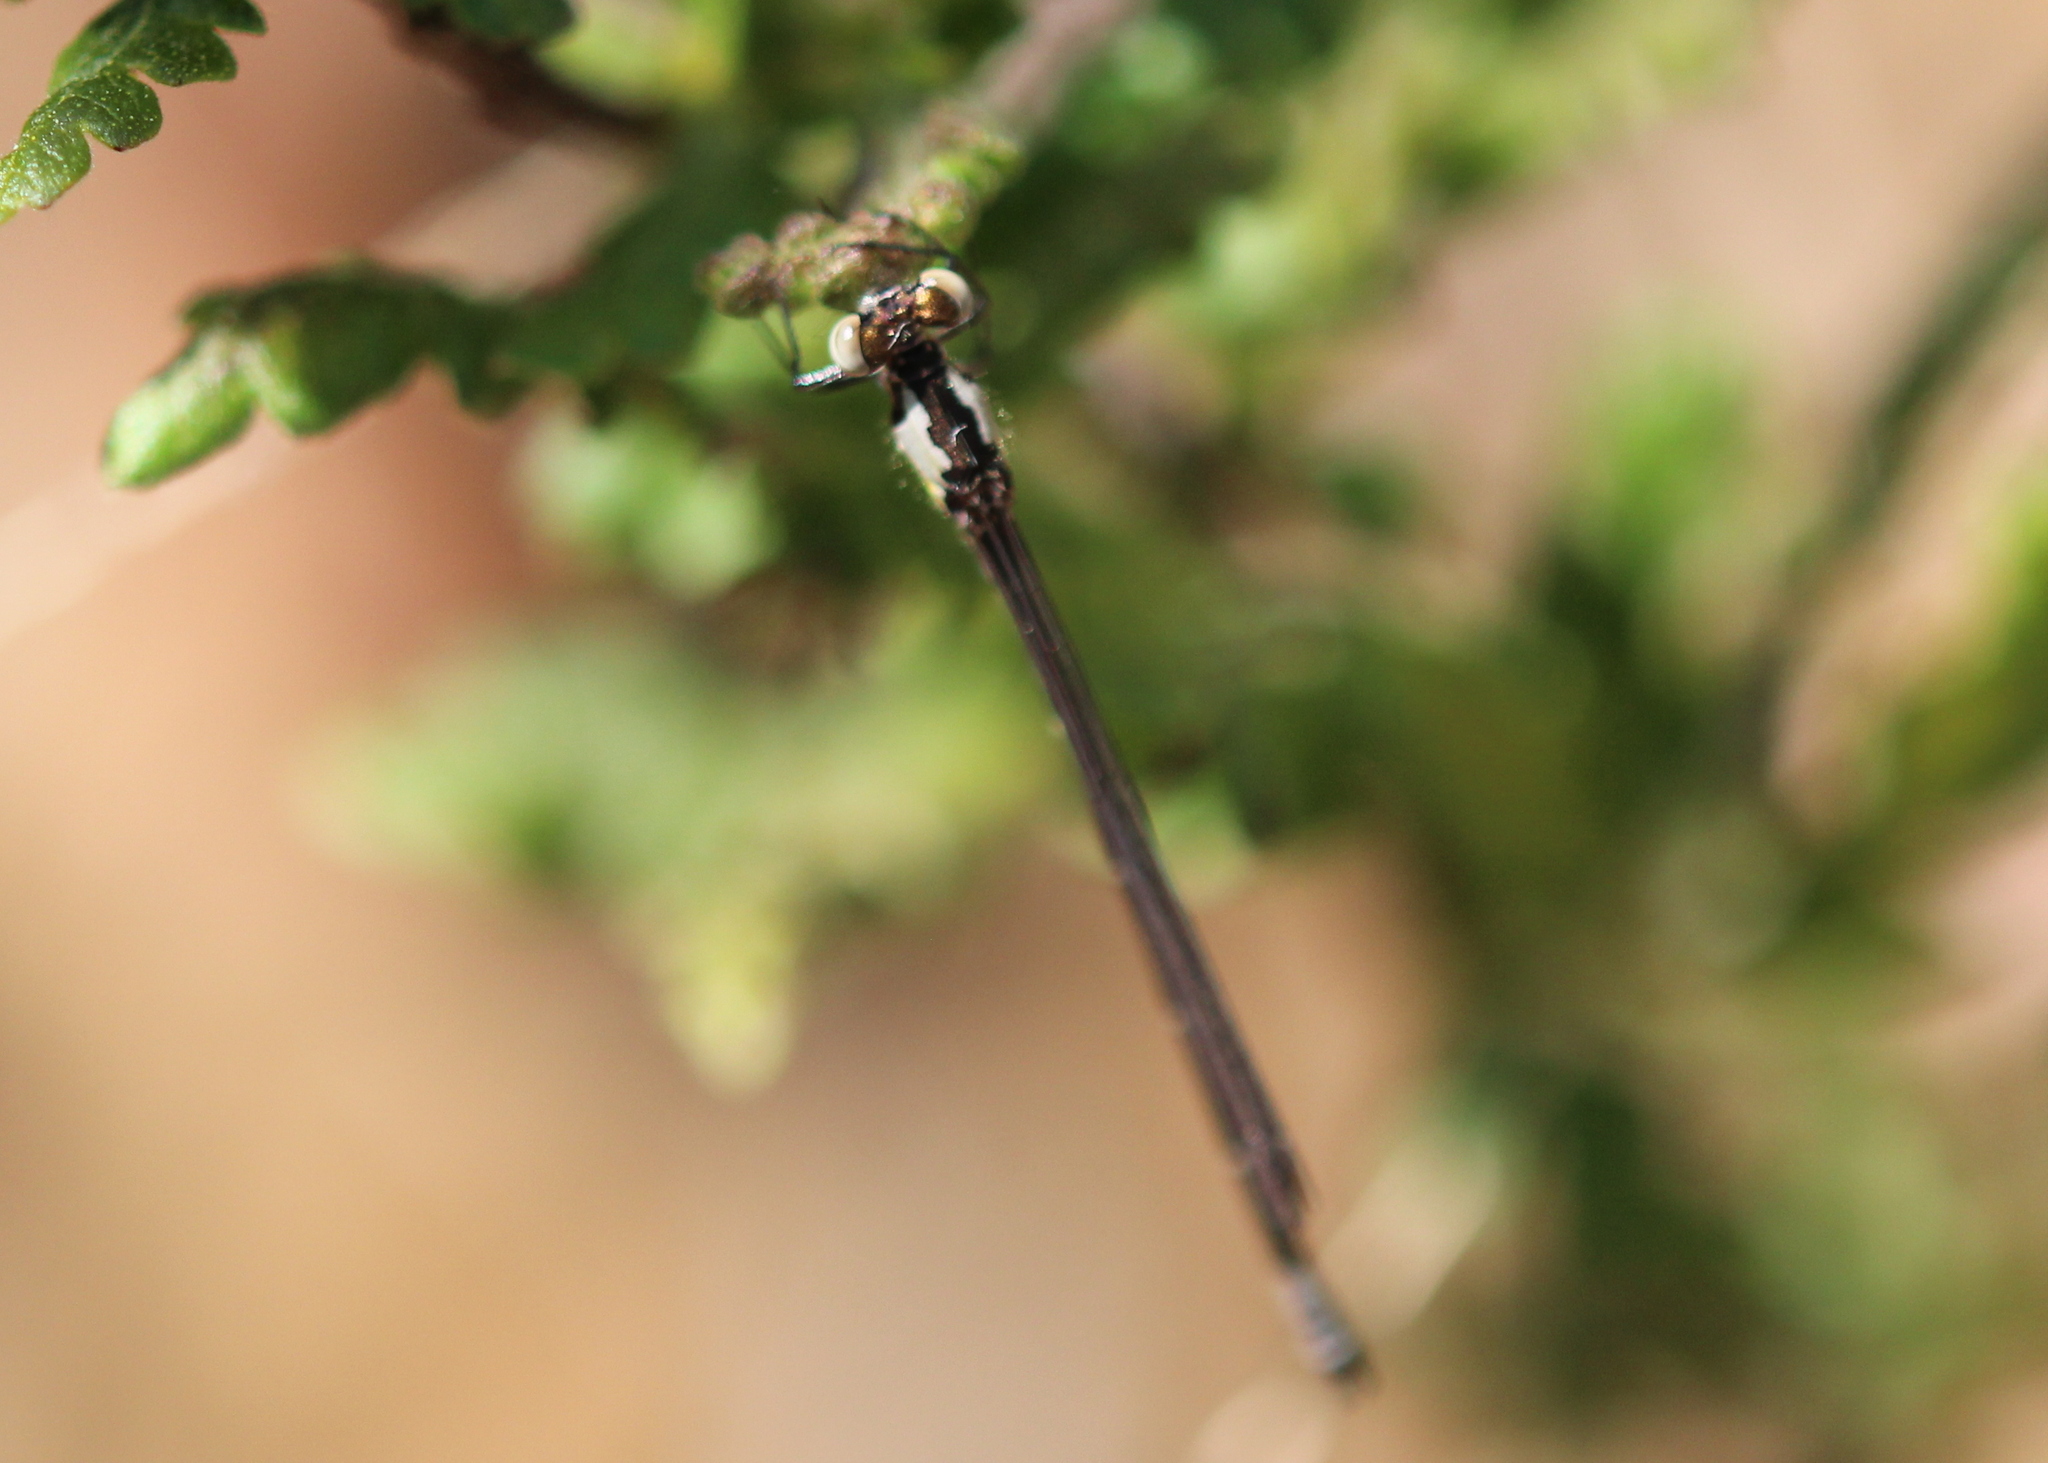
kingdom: Animalia
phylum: Arthropoda
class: Insecta
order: Odonata
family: Coenagrionidae
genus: Chromagrion
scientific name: Chromagrion conditum
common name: Aurora damsel
